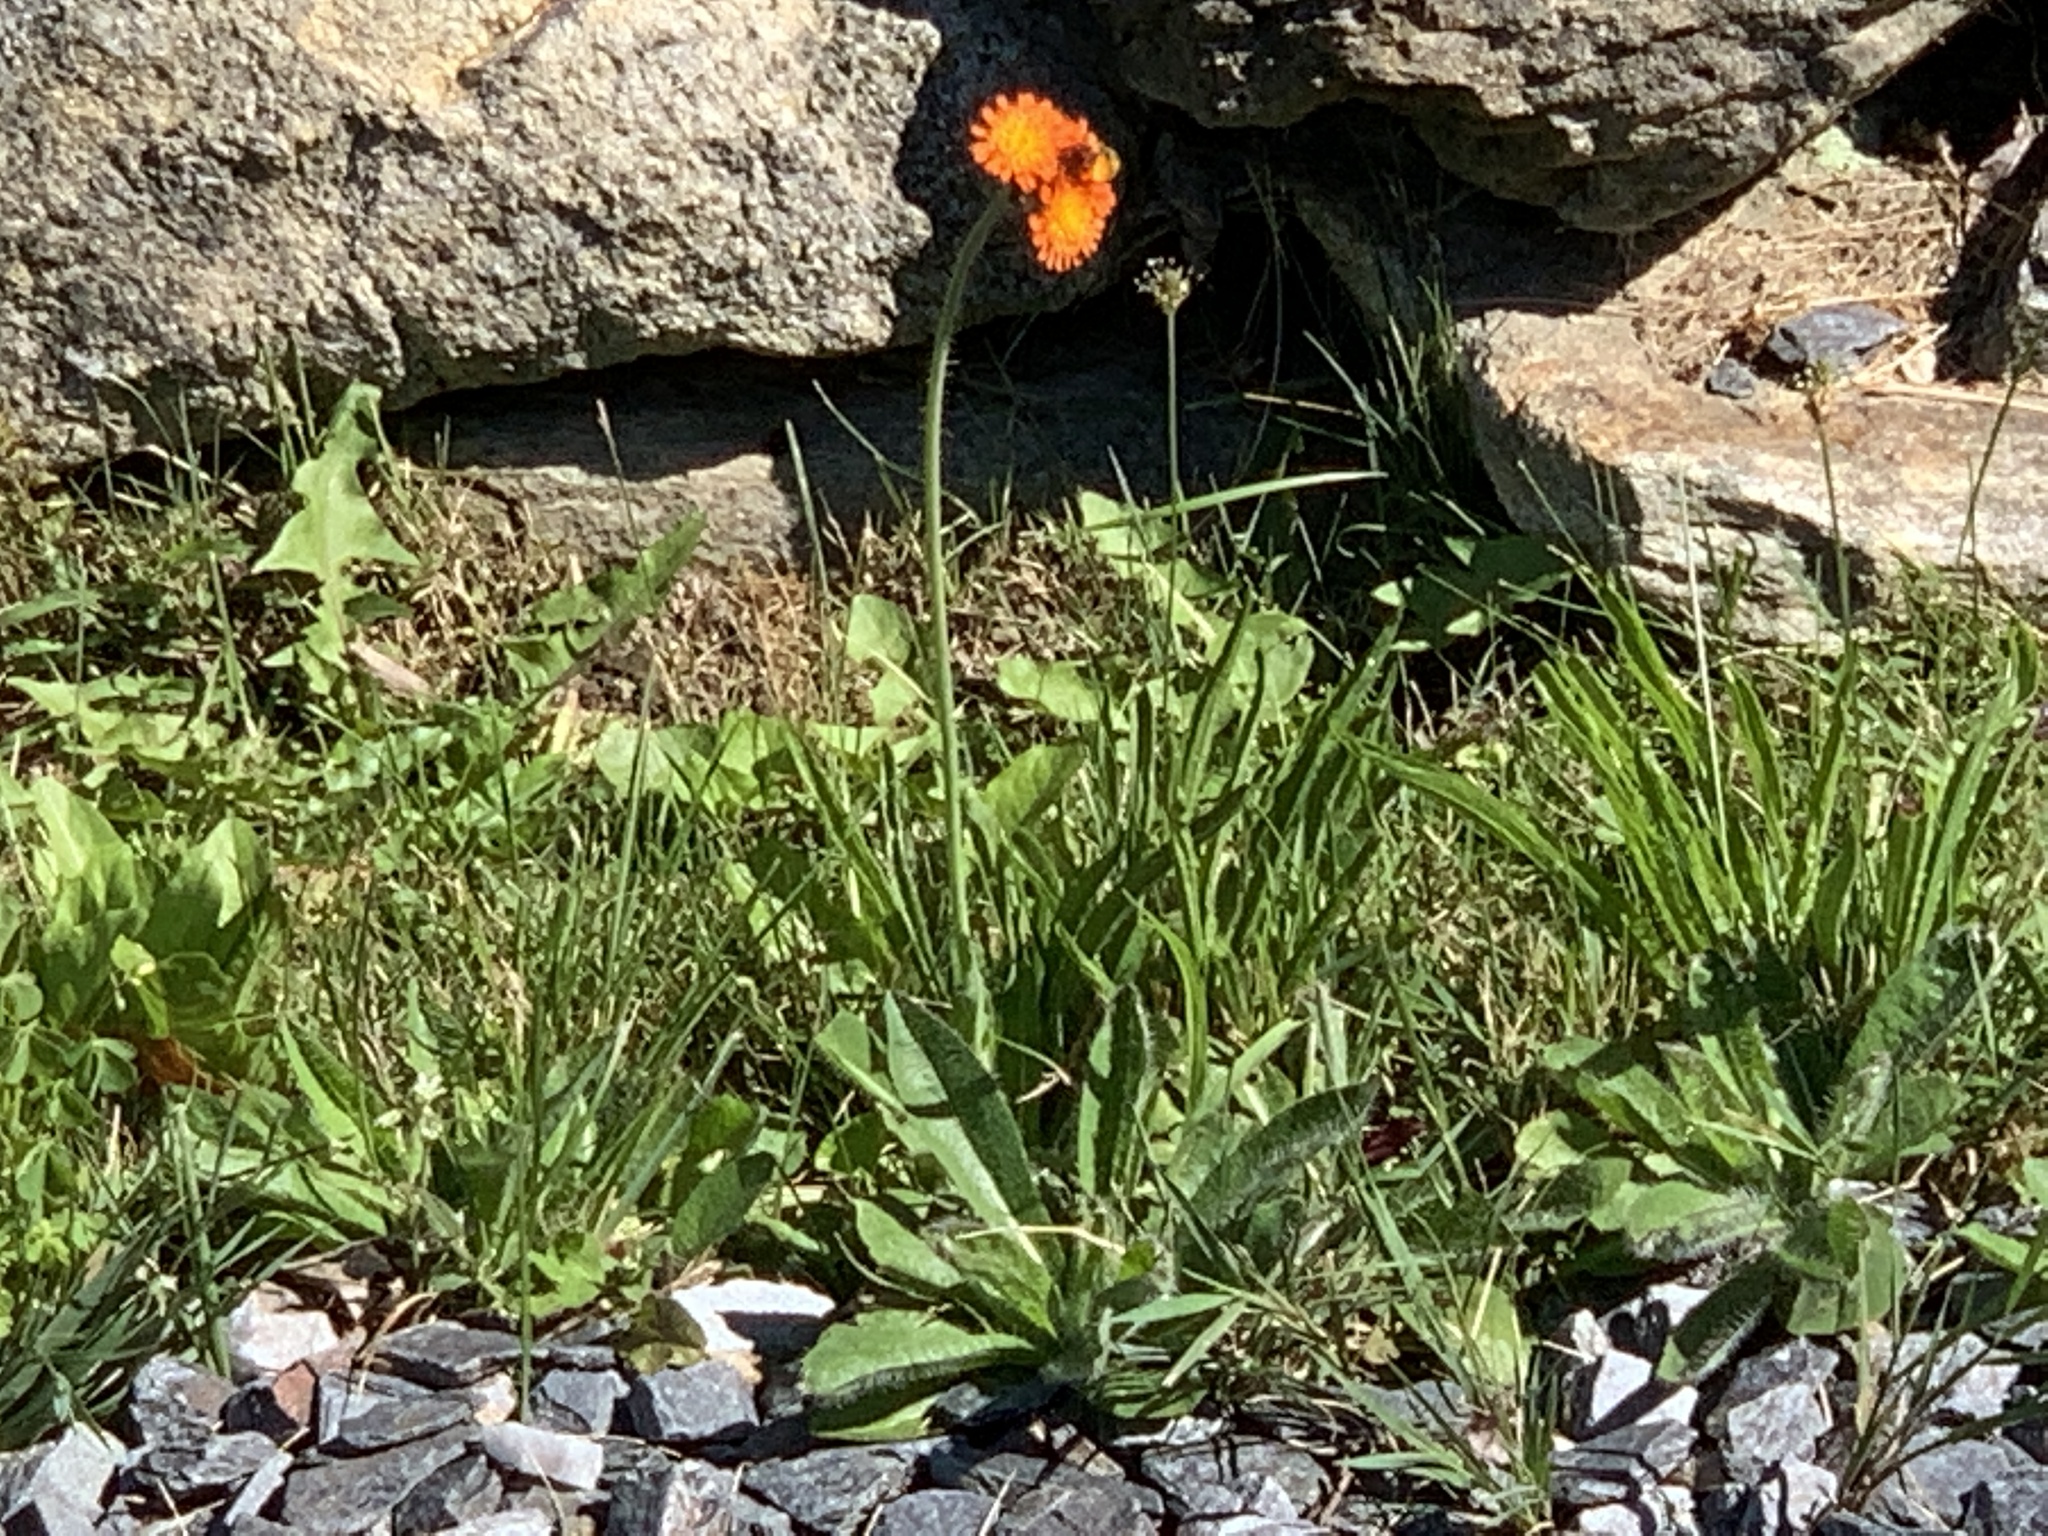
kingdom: Plantae
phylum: Tracheophyta
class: Magnoliopsida
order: Asterales
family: Asteraceae
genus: Pilosella
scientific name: Pilosella aurantiaca
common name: Fox-and-cubs
